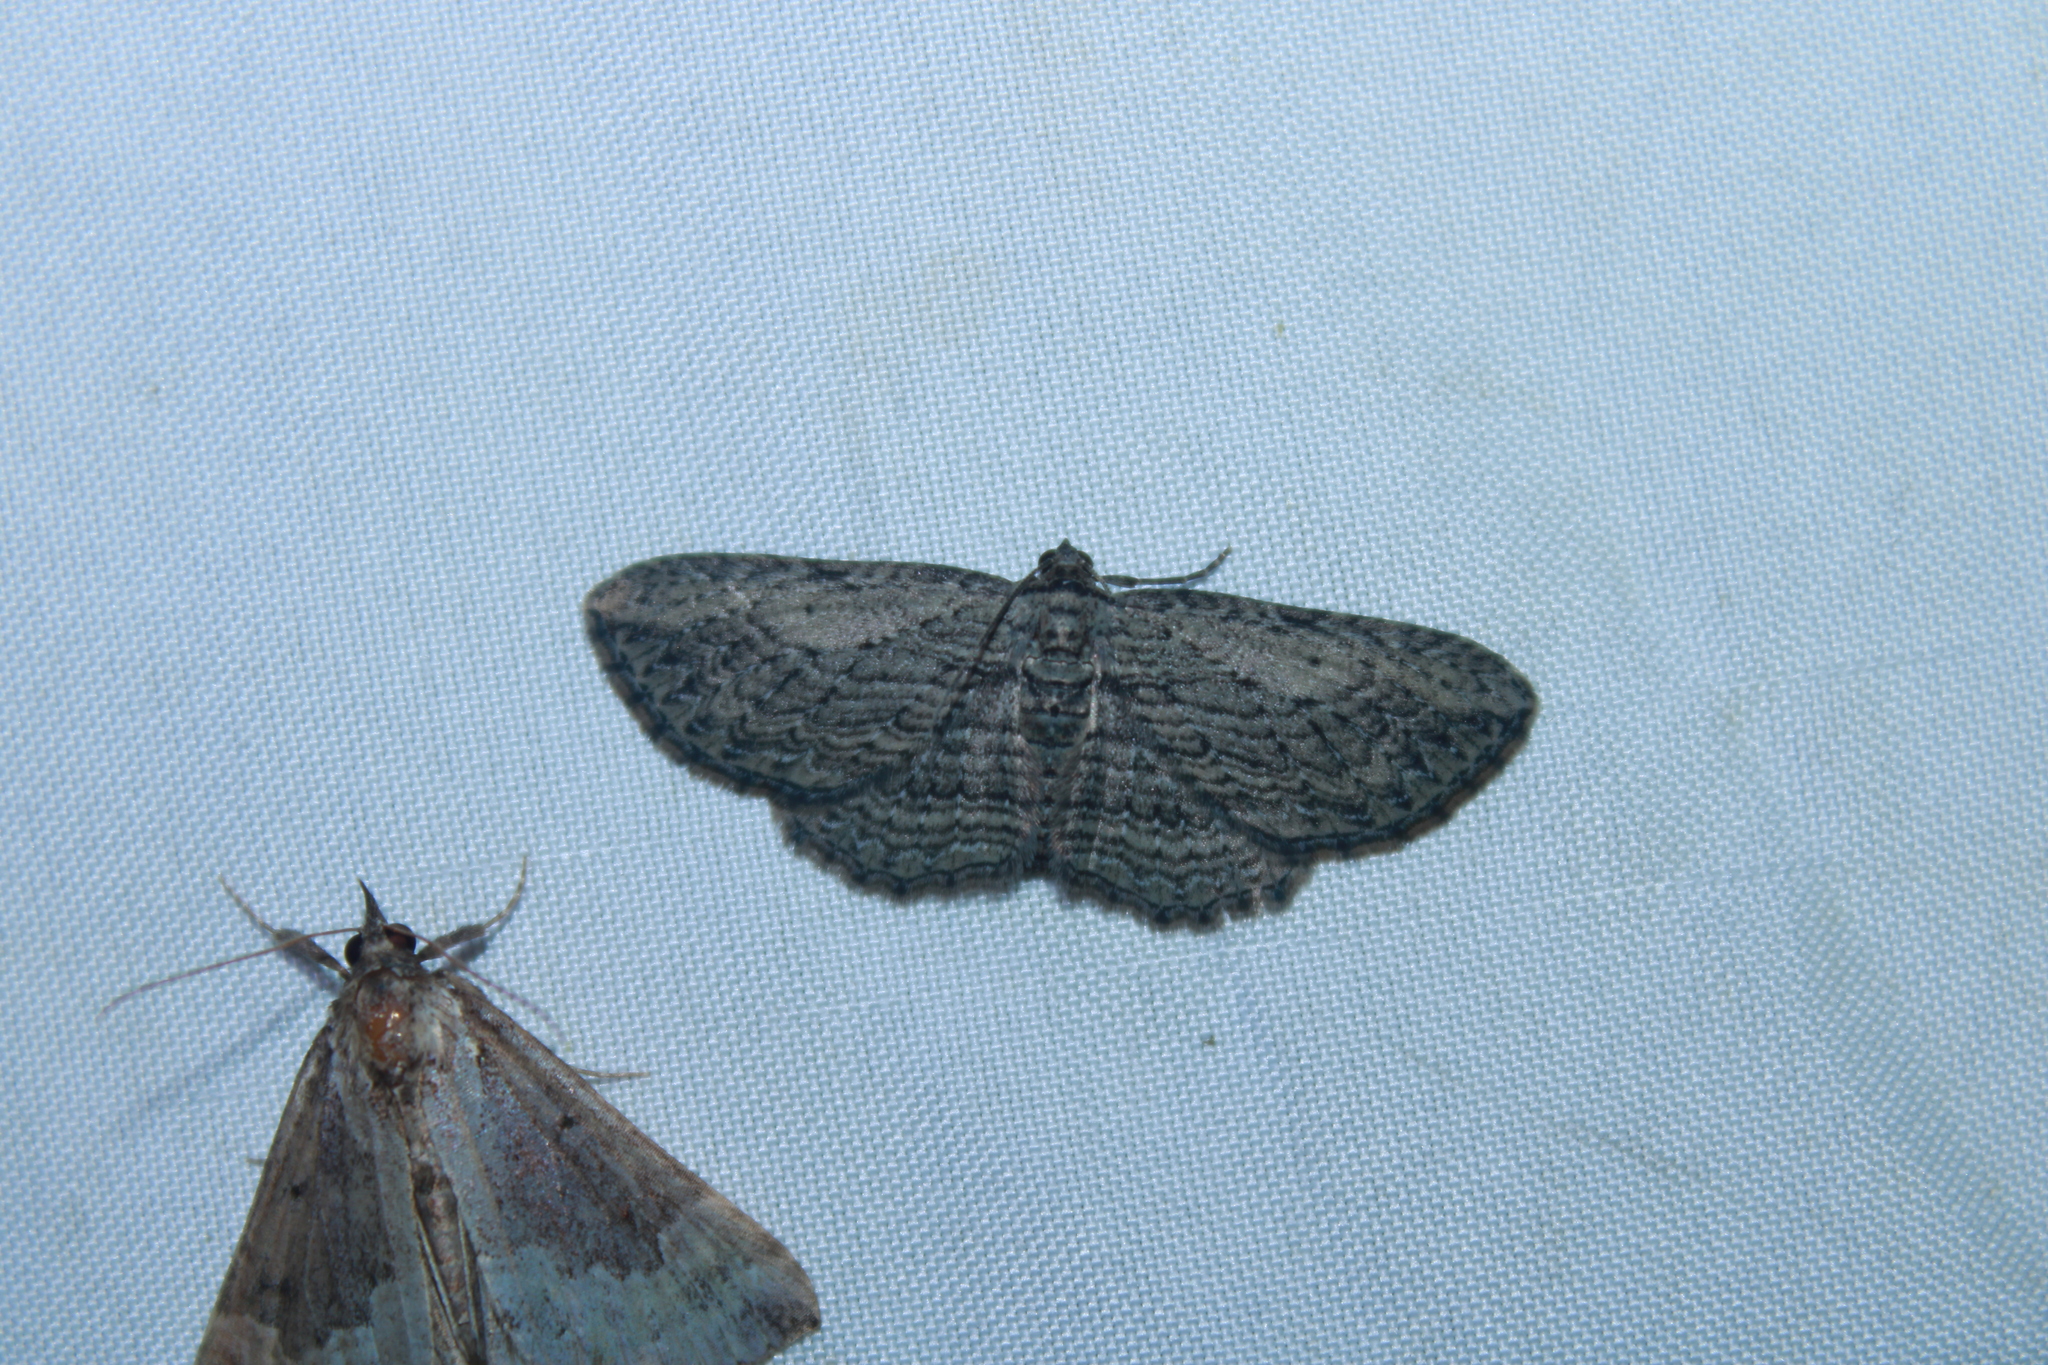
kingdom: Animalia
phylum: Arthropoda
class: Insecta
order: Lepidoptera
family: Geometridae
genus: Horisme
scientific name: Horisme intestinata
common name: Brown bark carpet
